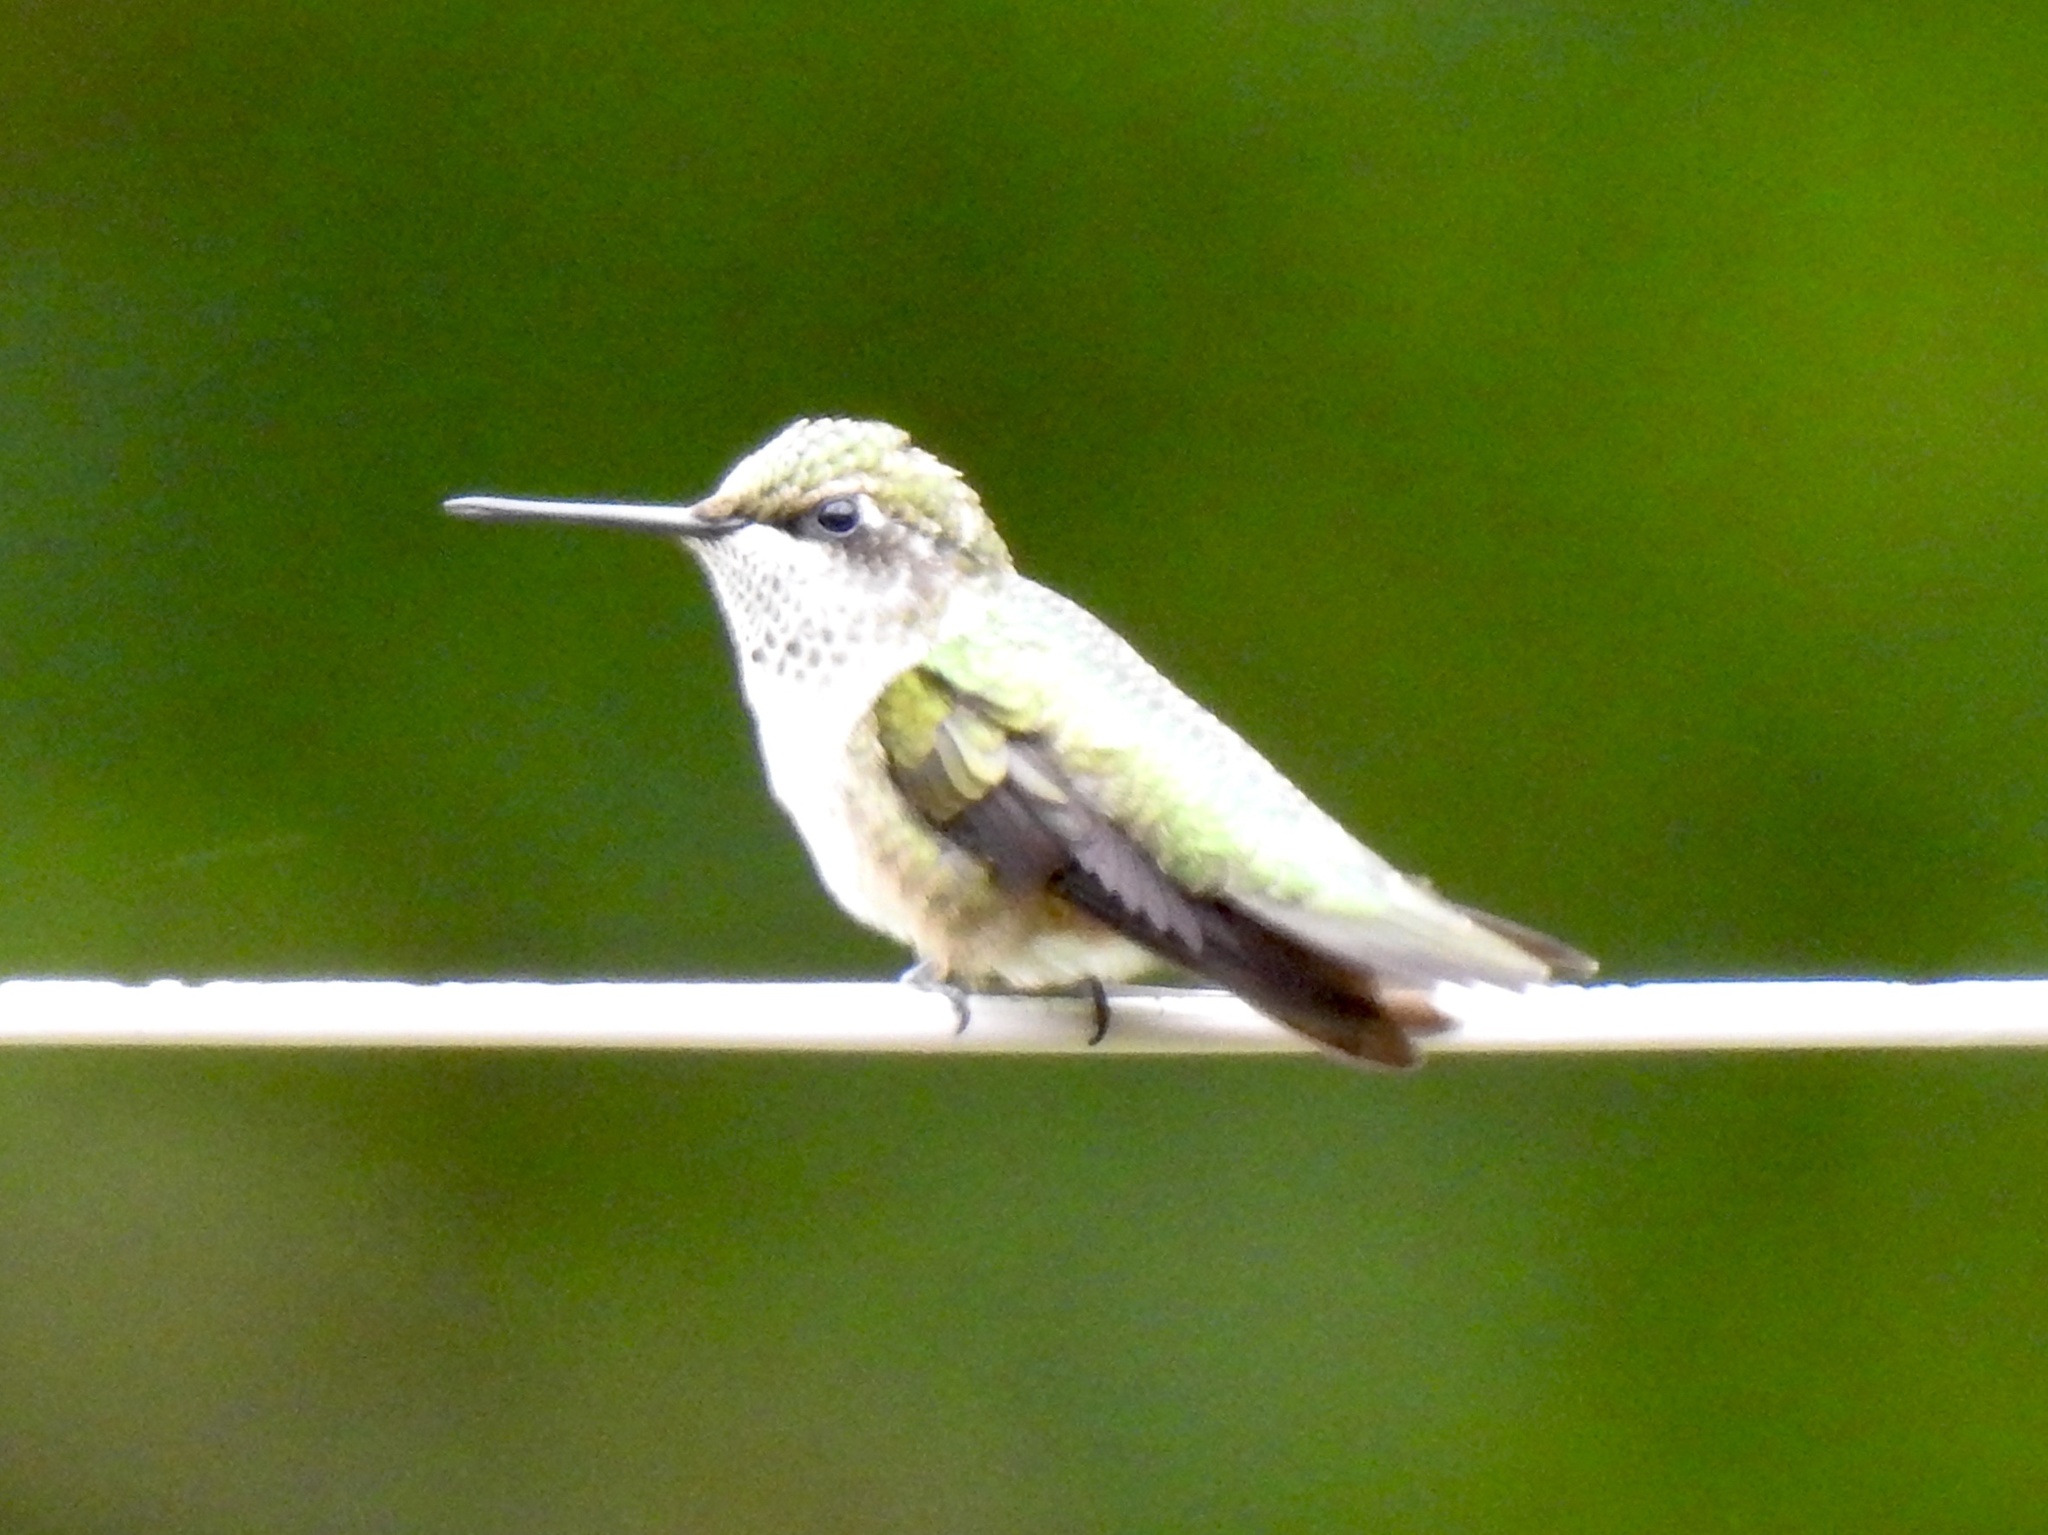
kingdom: Animalia
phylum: Chordata
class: Aves
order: Apodiformes
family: Trochilidae
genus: Archilochus
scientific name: Archilochus colubris
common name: Ruby-throated hummingbird
